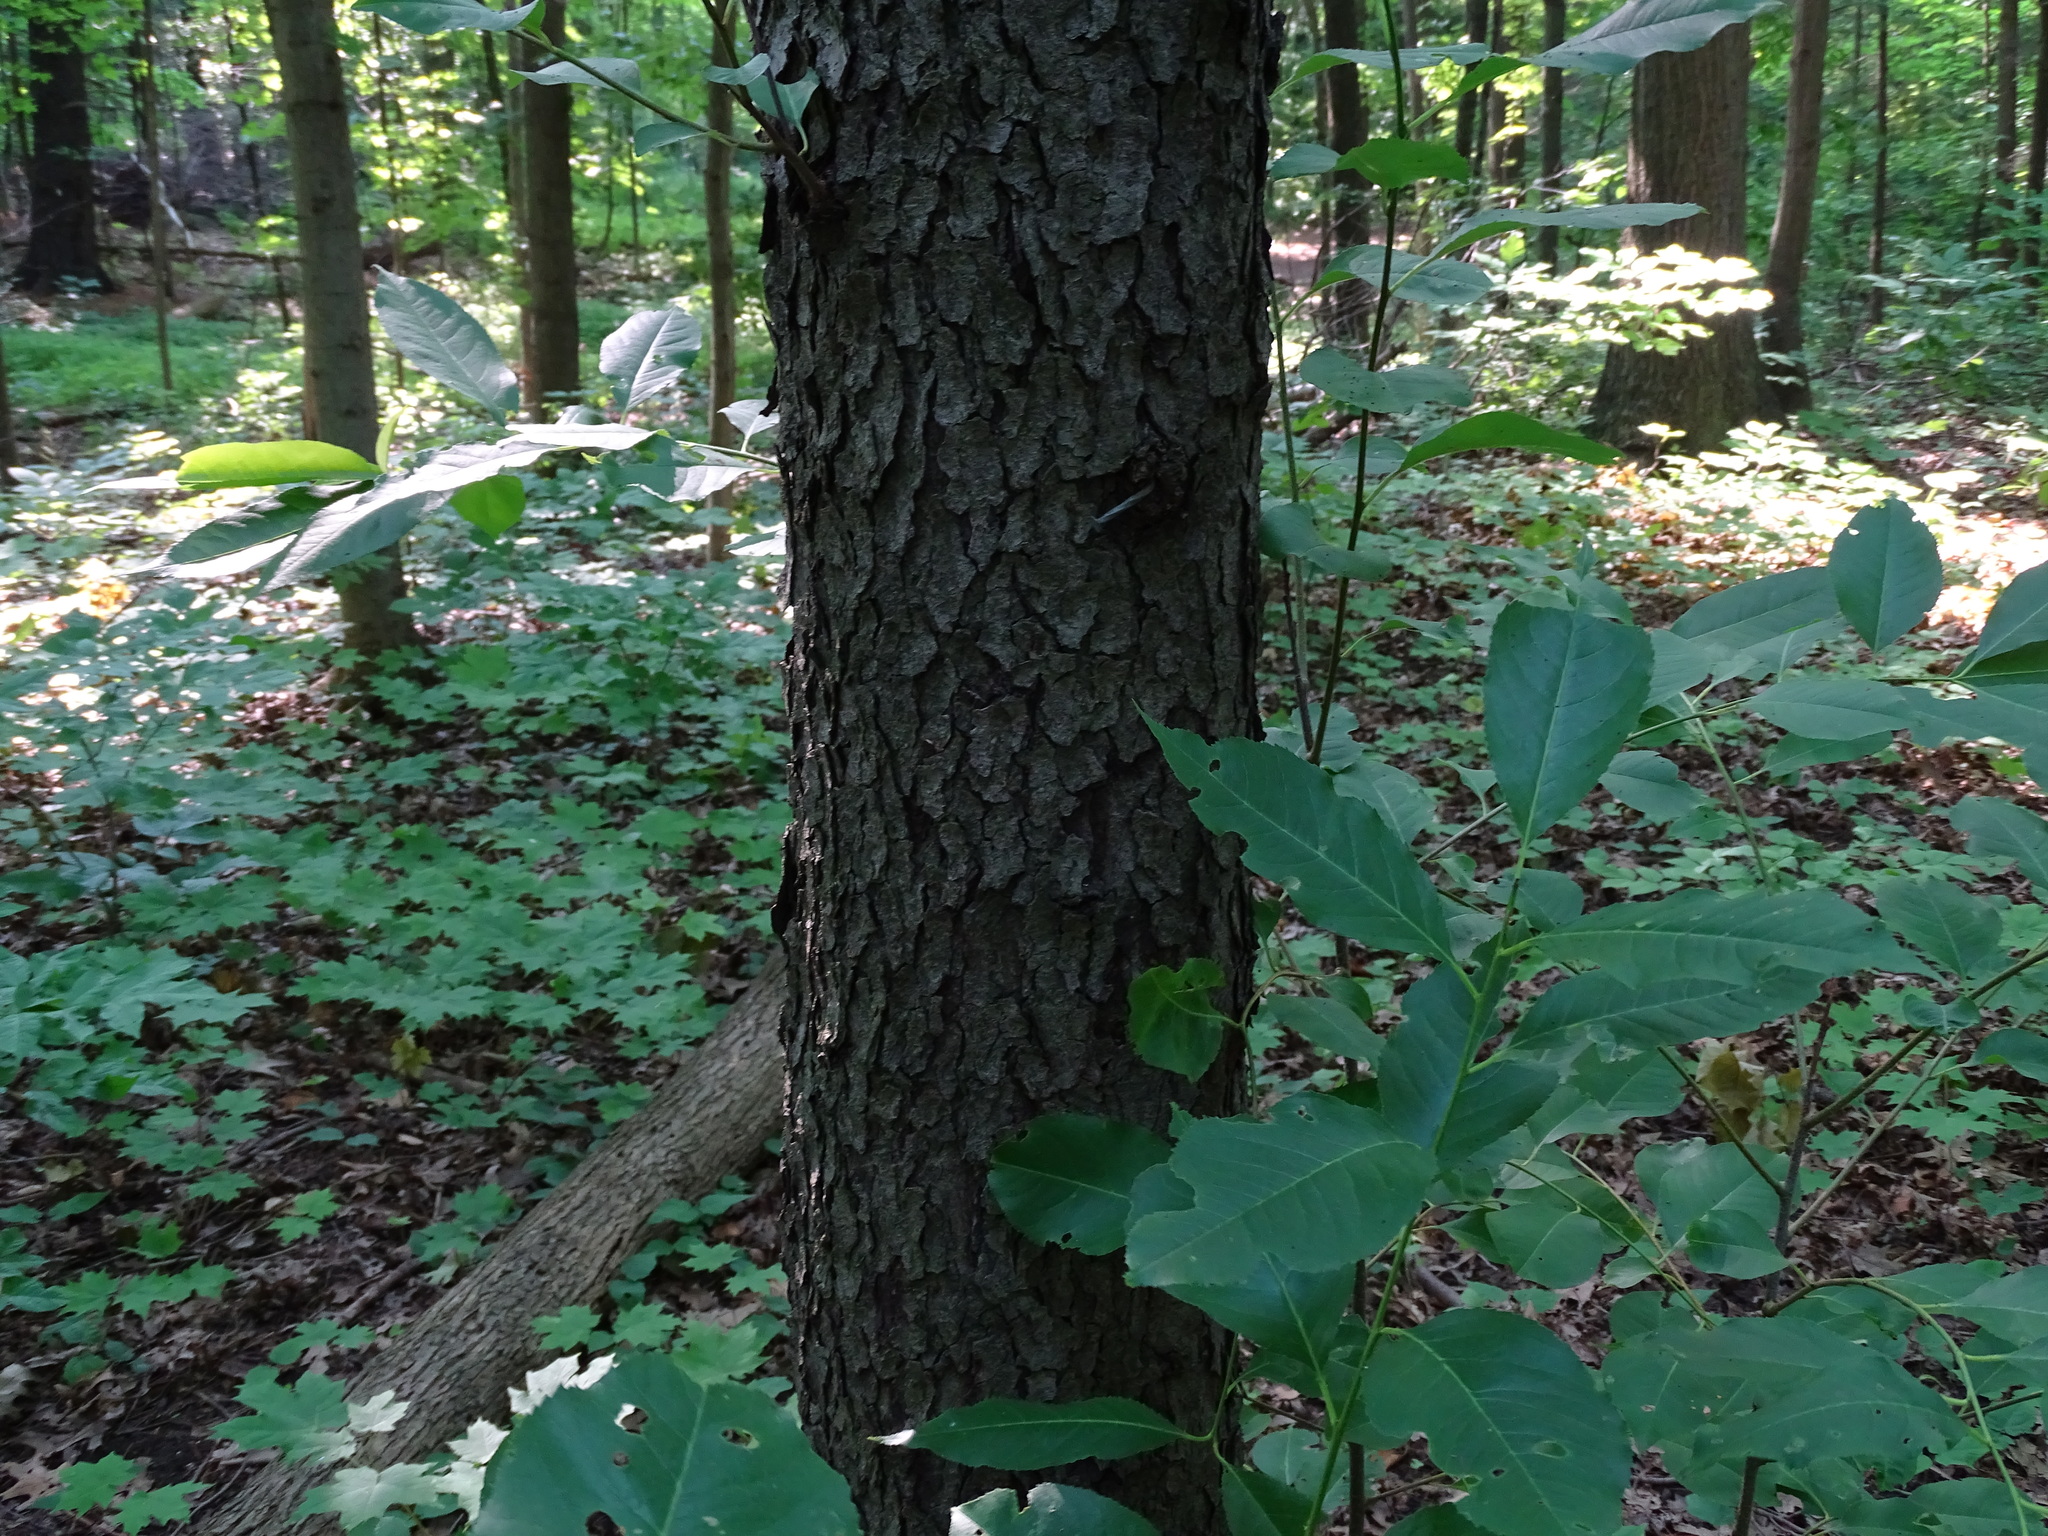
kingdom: Plantae
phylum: Tracheophyta
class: Magnoliopsida
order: Rosales
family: Rosaceae
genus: Prunus
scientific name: Prunus serotina
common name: Black cherry
